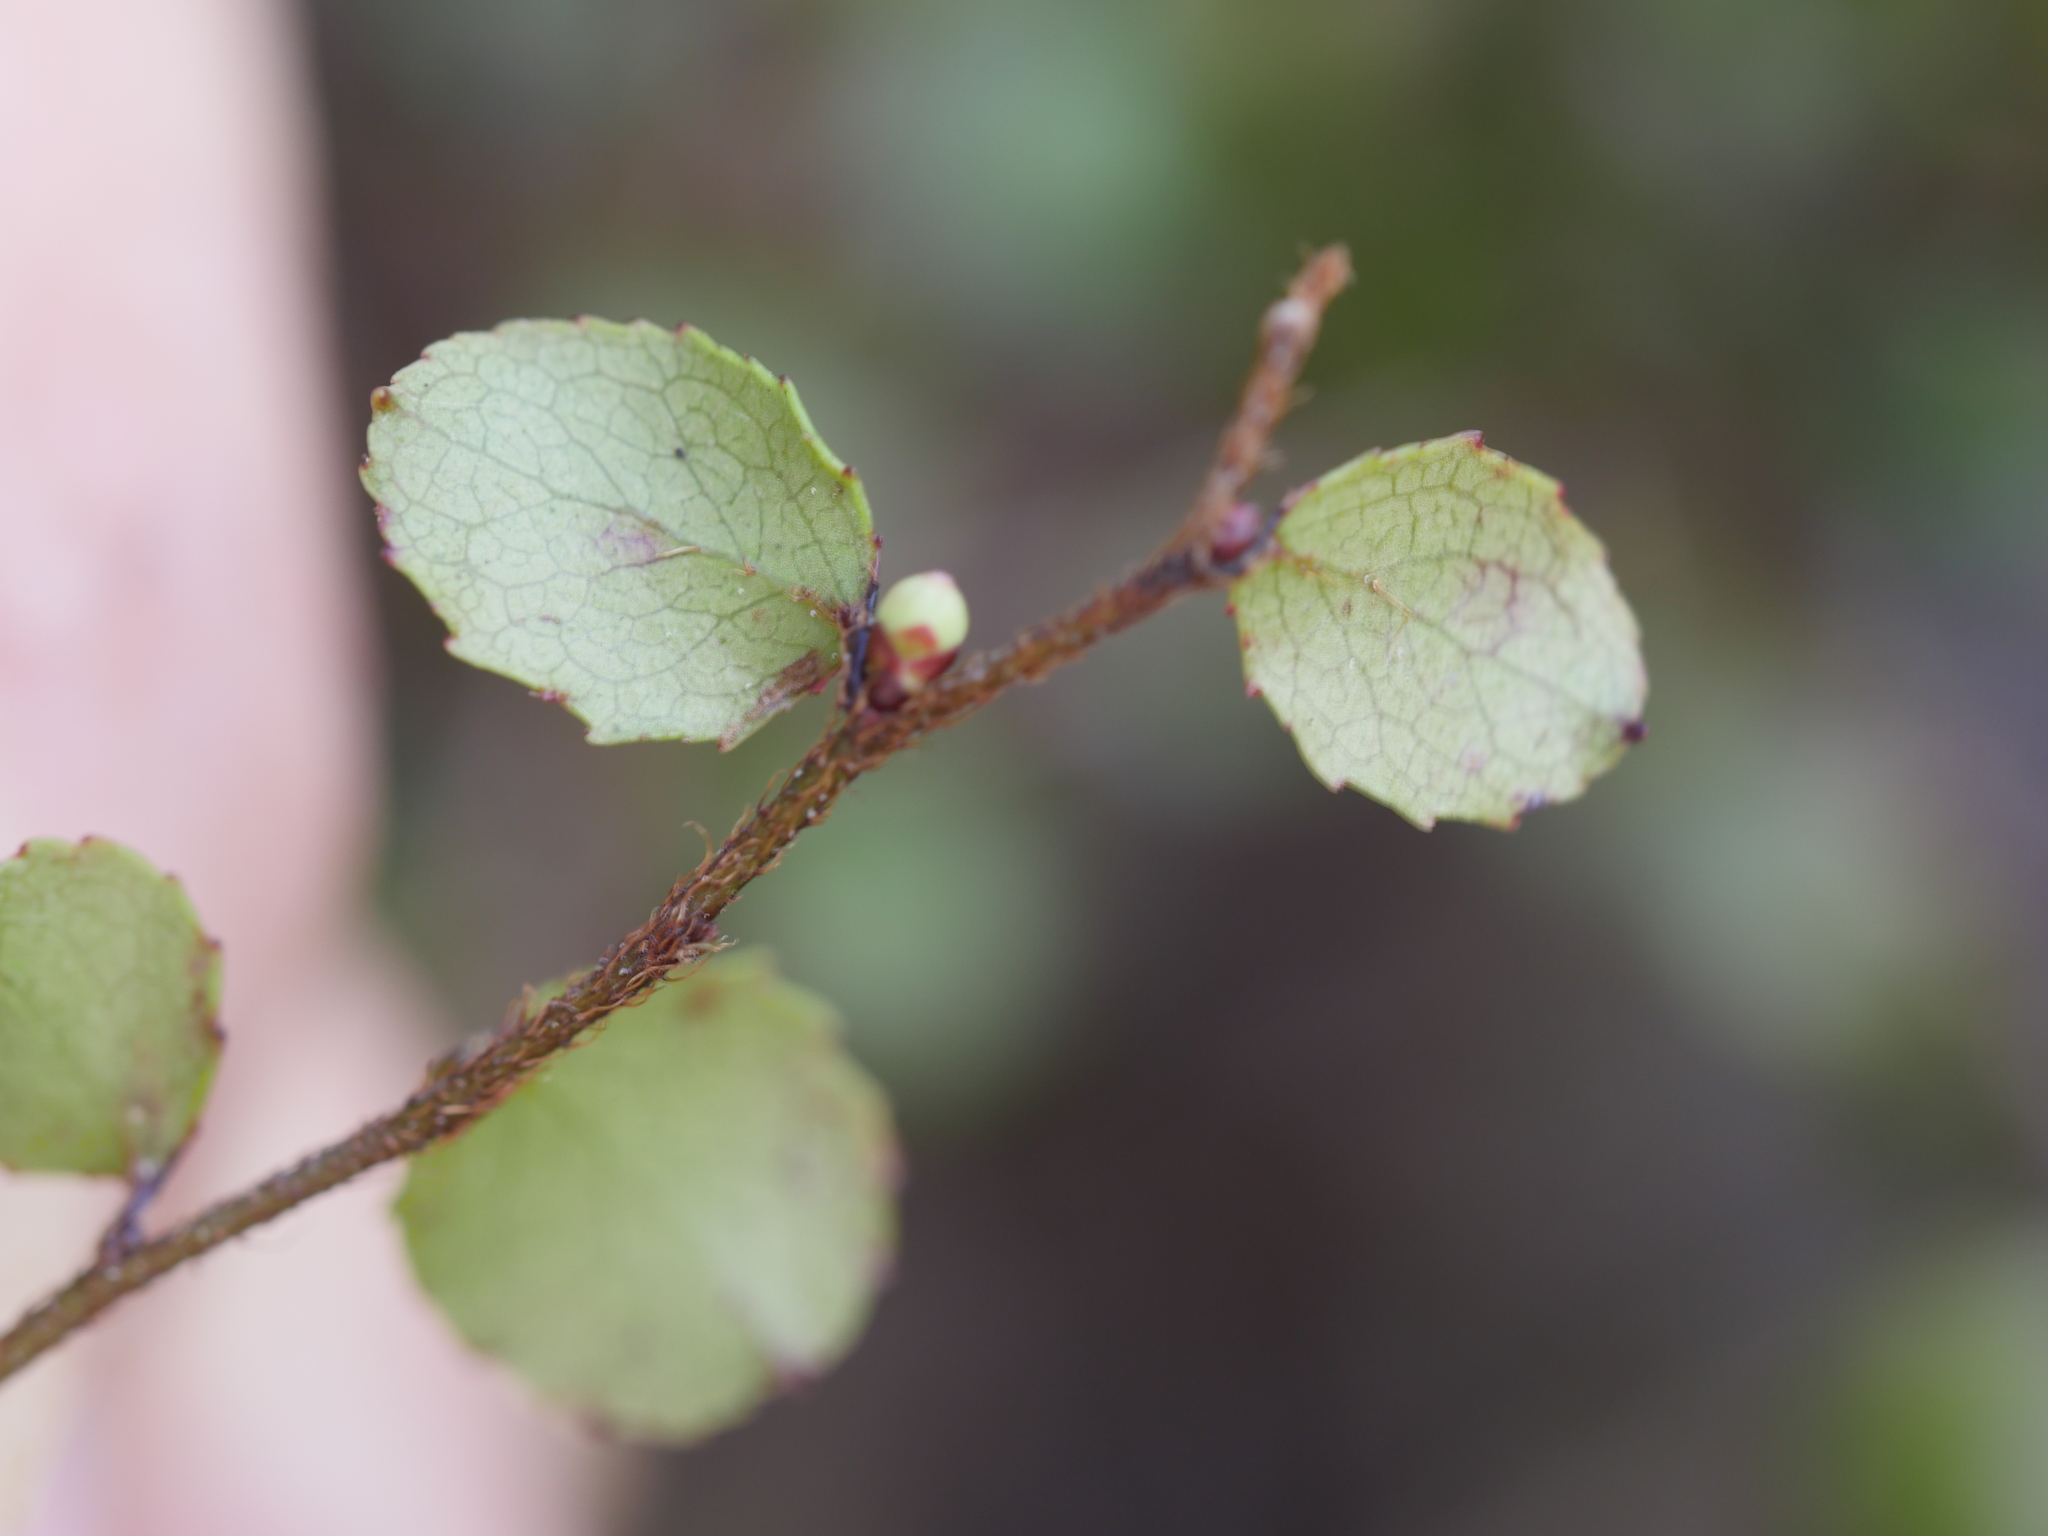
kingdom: Plantae
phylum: Tracheophyta
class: Magnoliopsida
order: Ericales
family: Ericaceae
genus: Gaultheria
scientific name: Gaultheria antipoda
